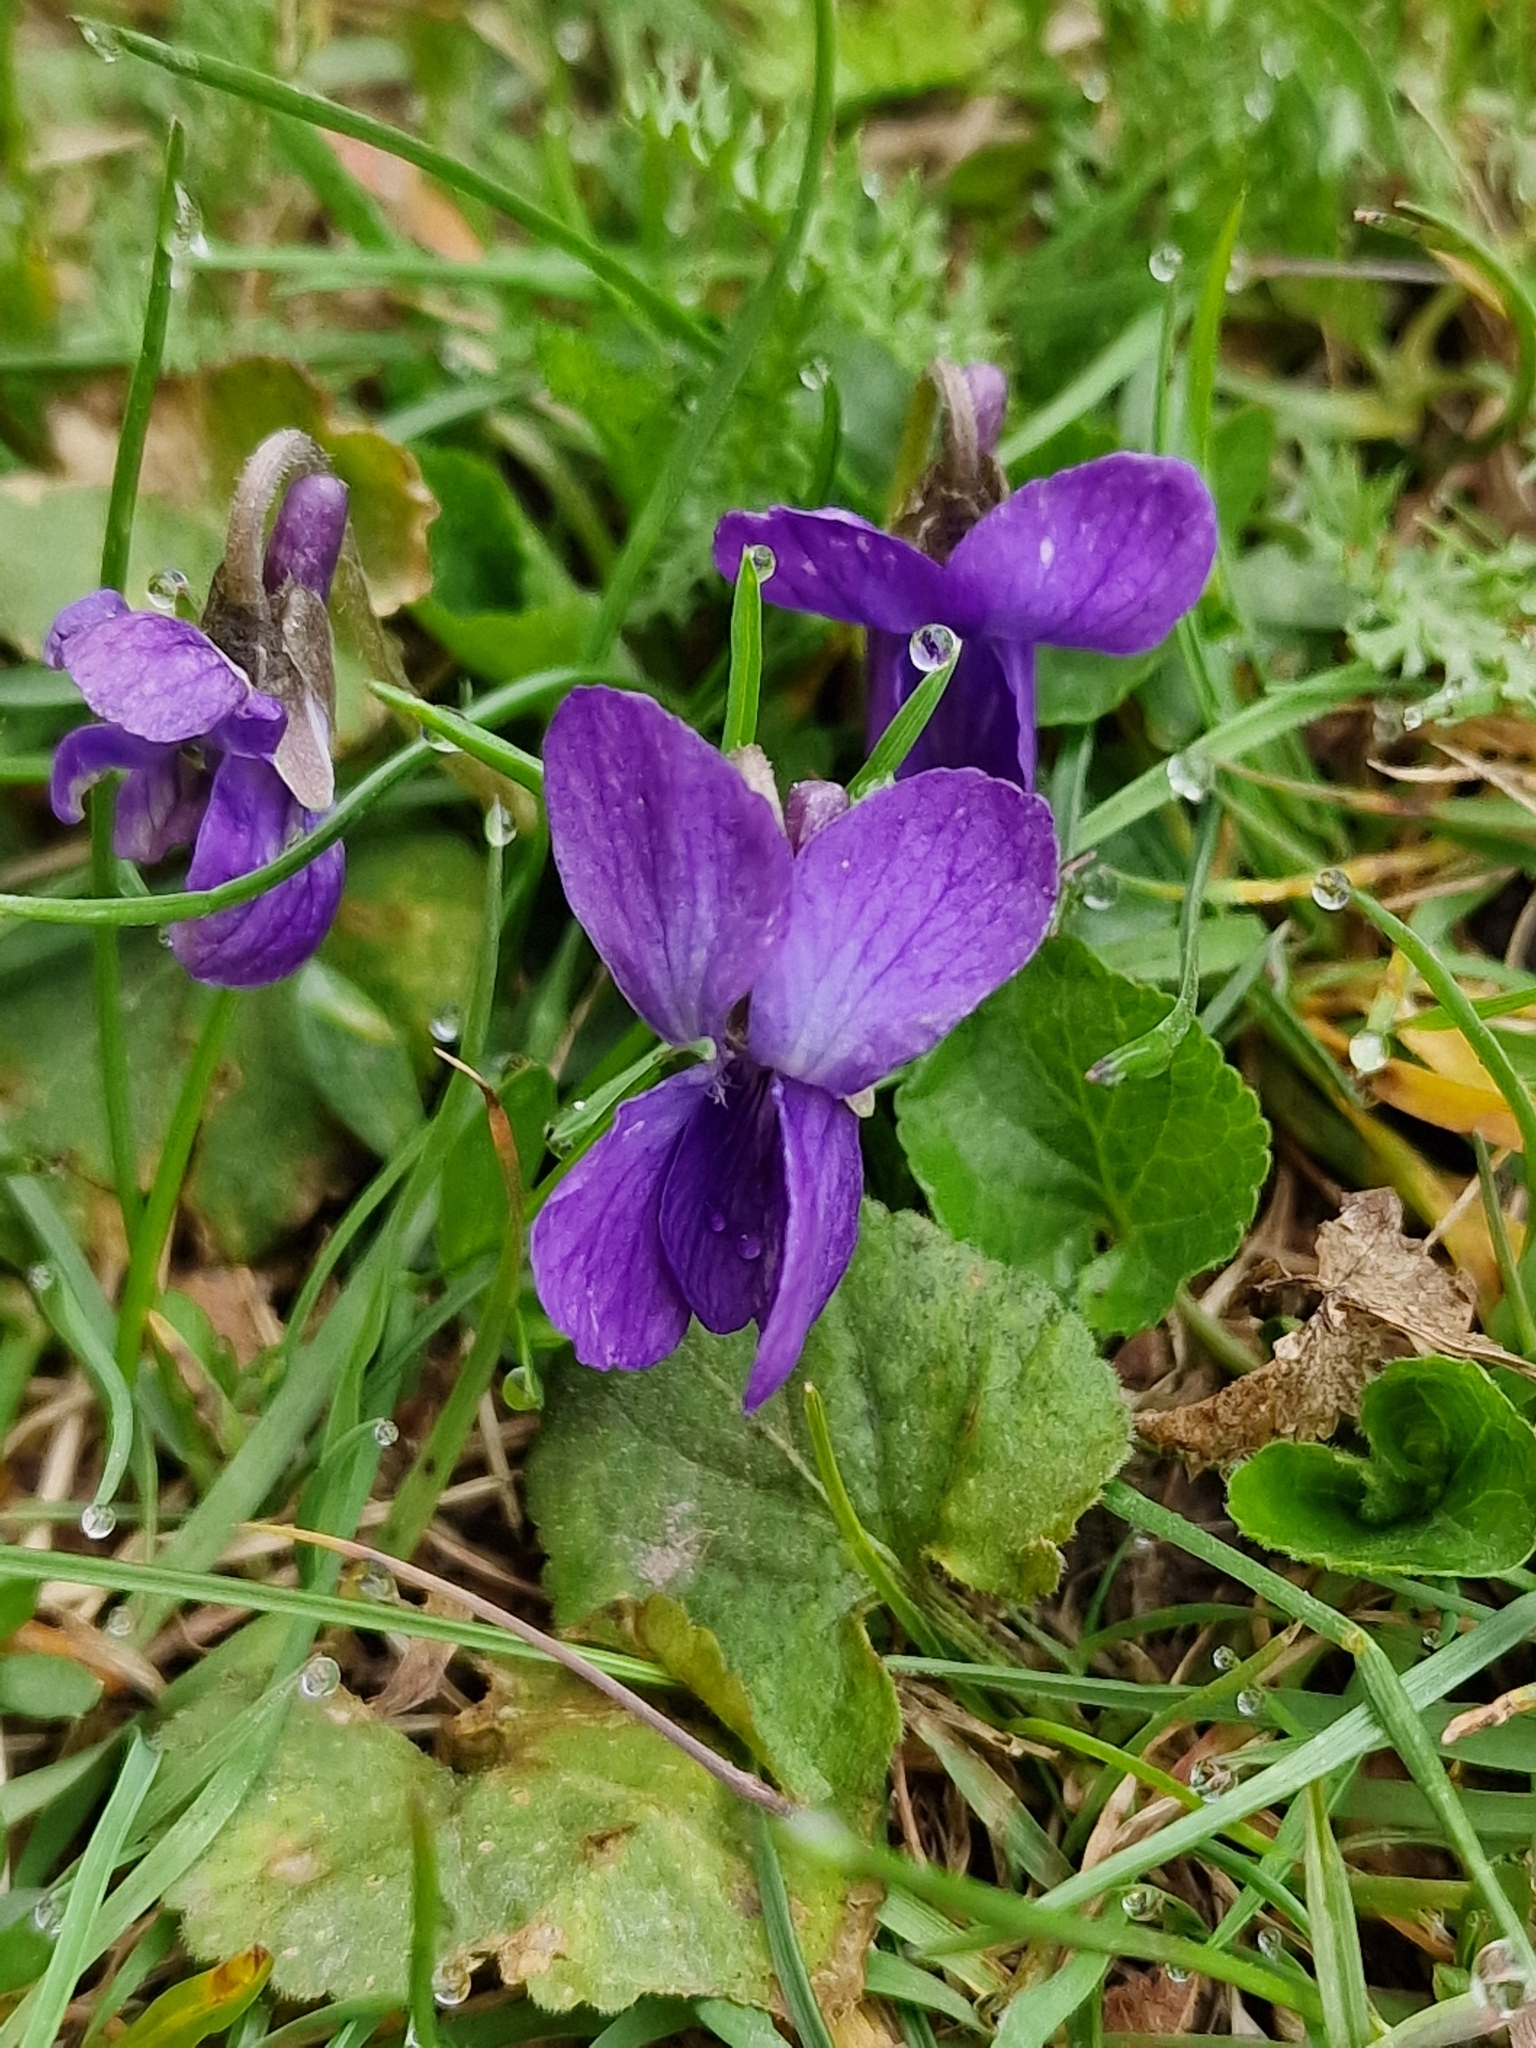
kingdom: Plantae
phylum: Tracheophyta
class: Magnoliopsida
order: Malpighiales
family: Violaceae
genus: Viola
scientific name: Viola odorata
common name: Sweet violet
